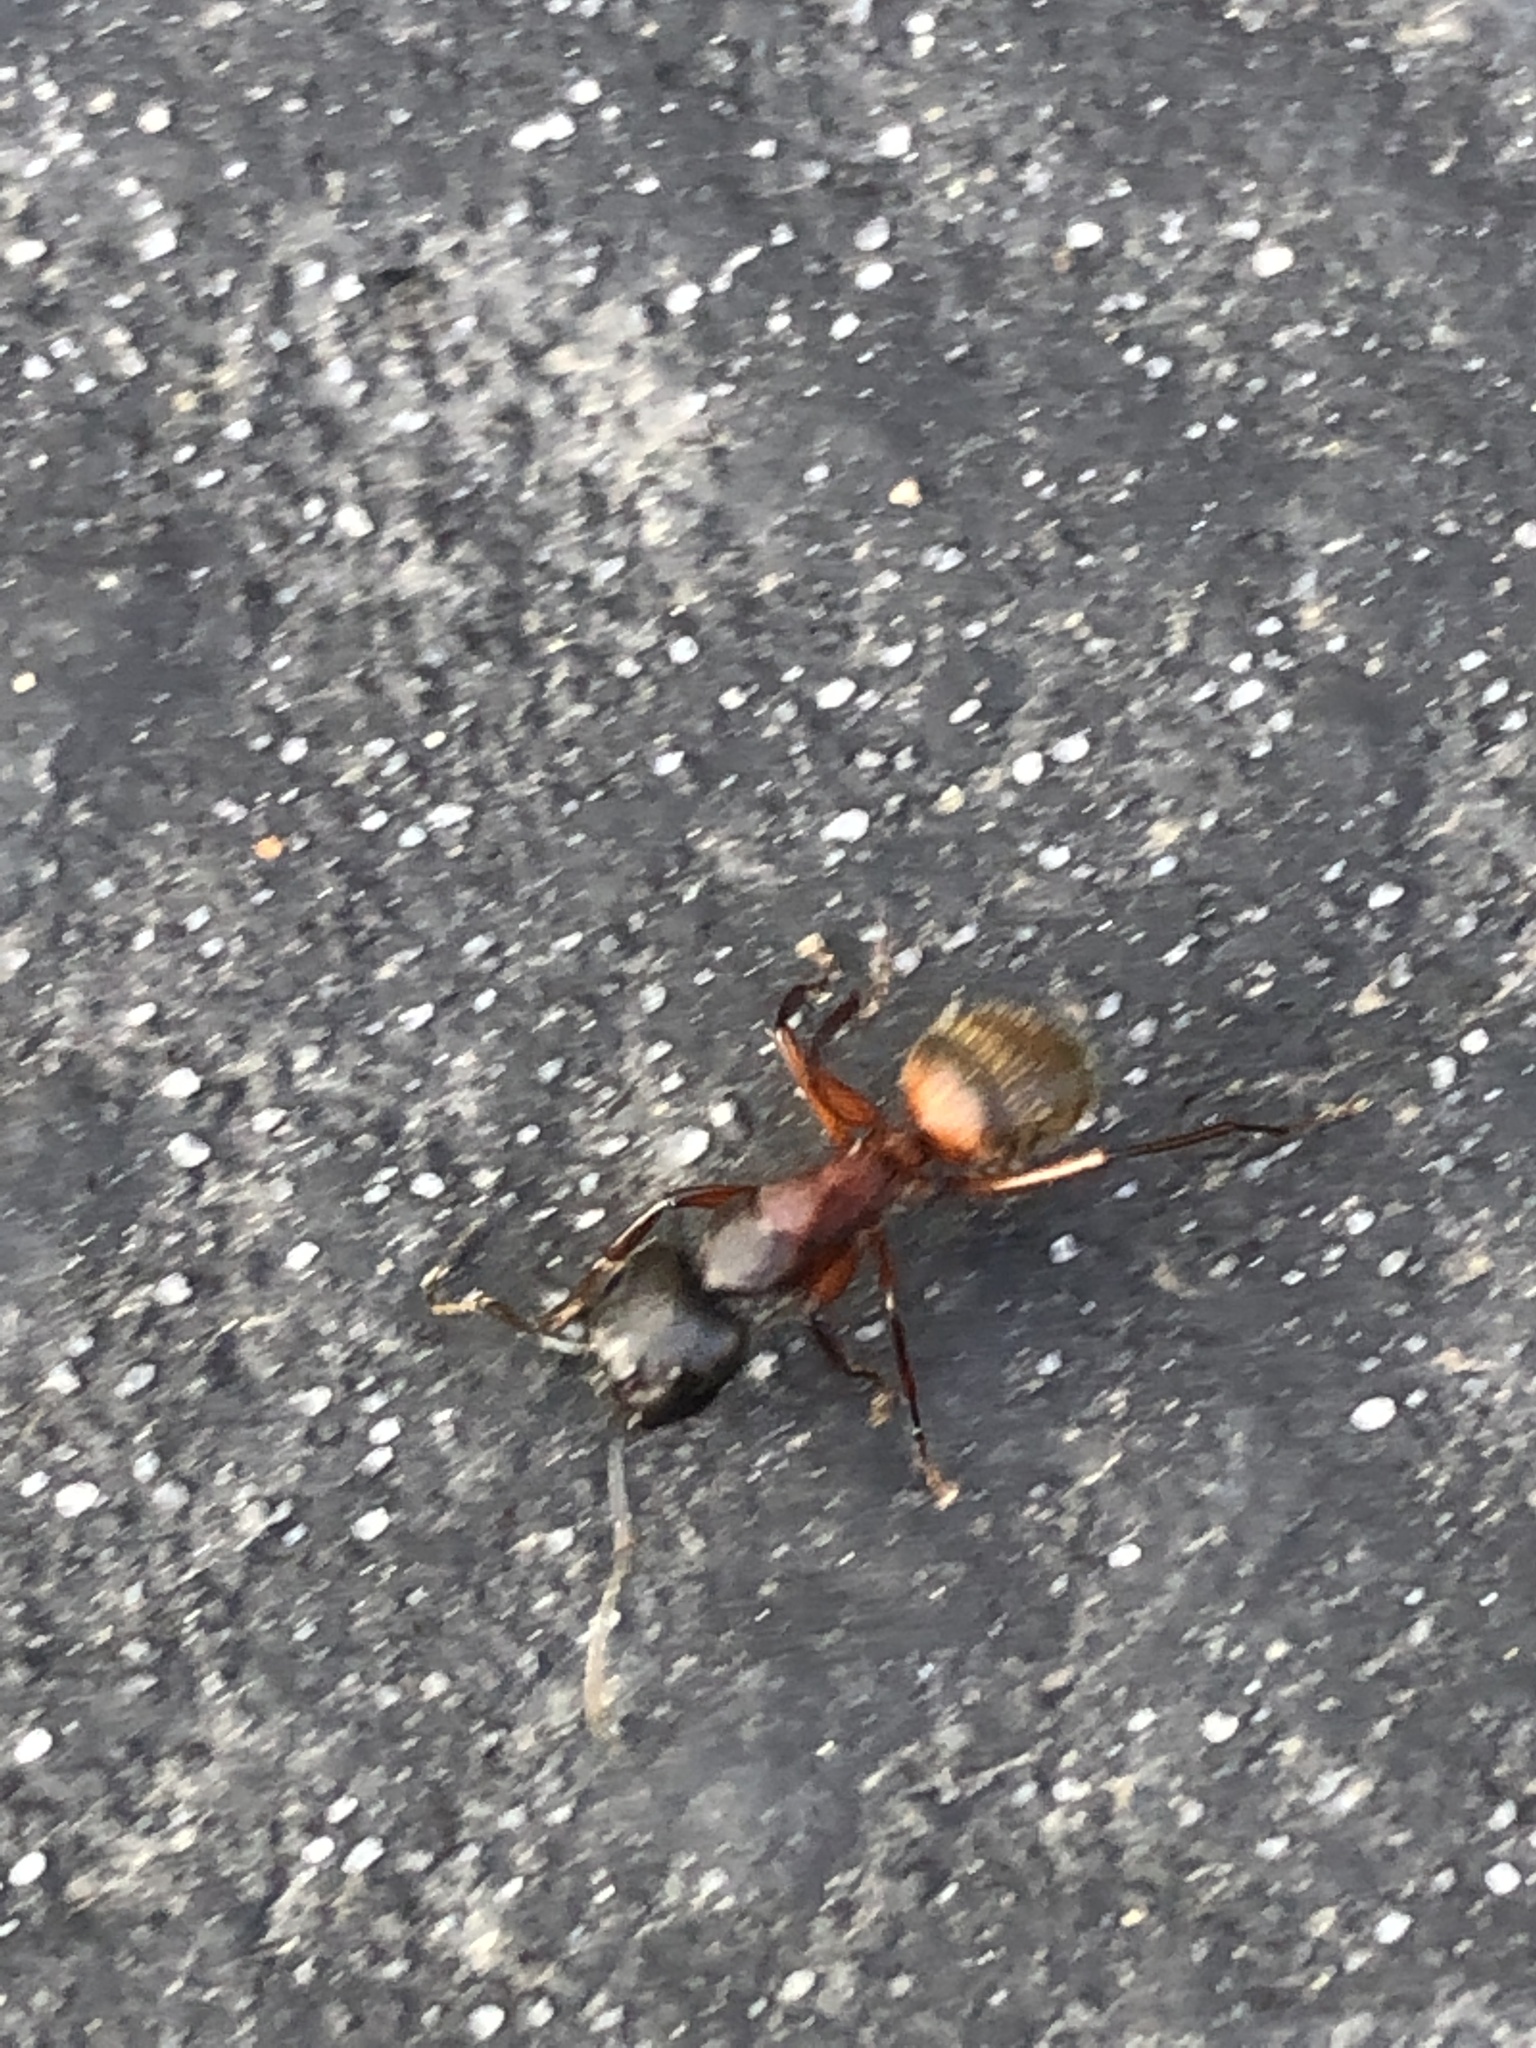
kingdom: Animalia
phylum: Arthropoda
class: Insecta
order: Hymenoptera
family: Formicidae
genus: Camponotus
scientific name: Camponotus chromaiodes
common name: Red carpenter ant
